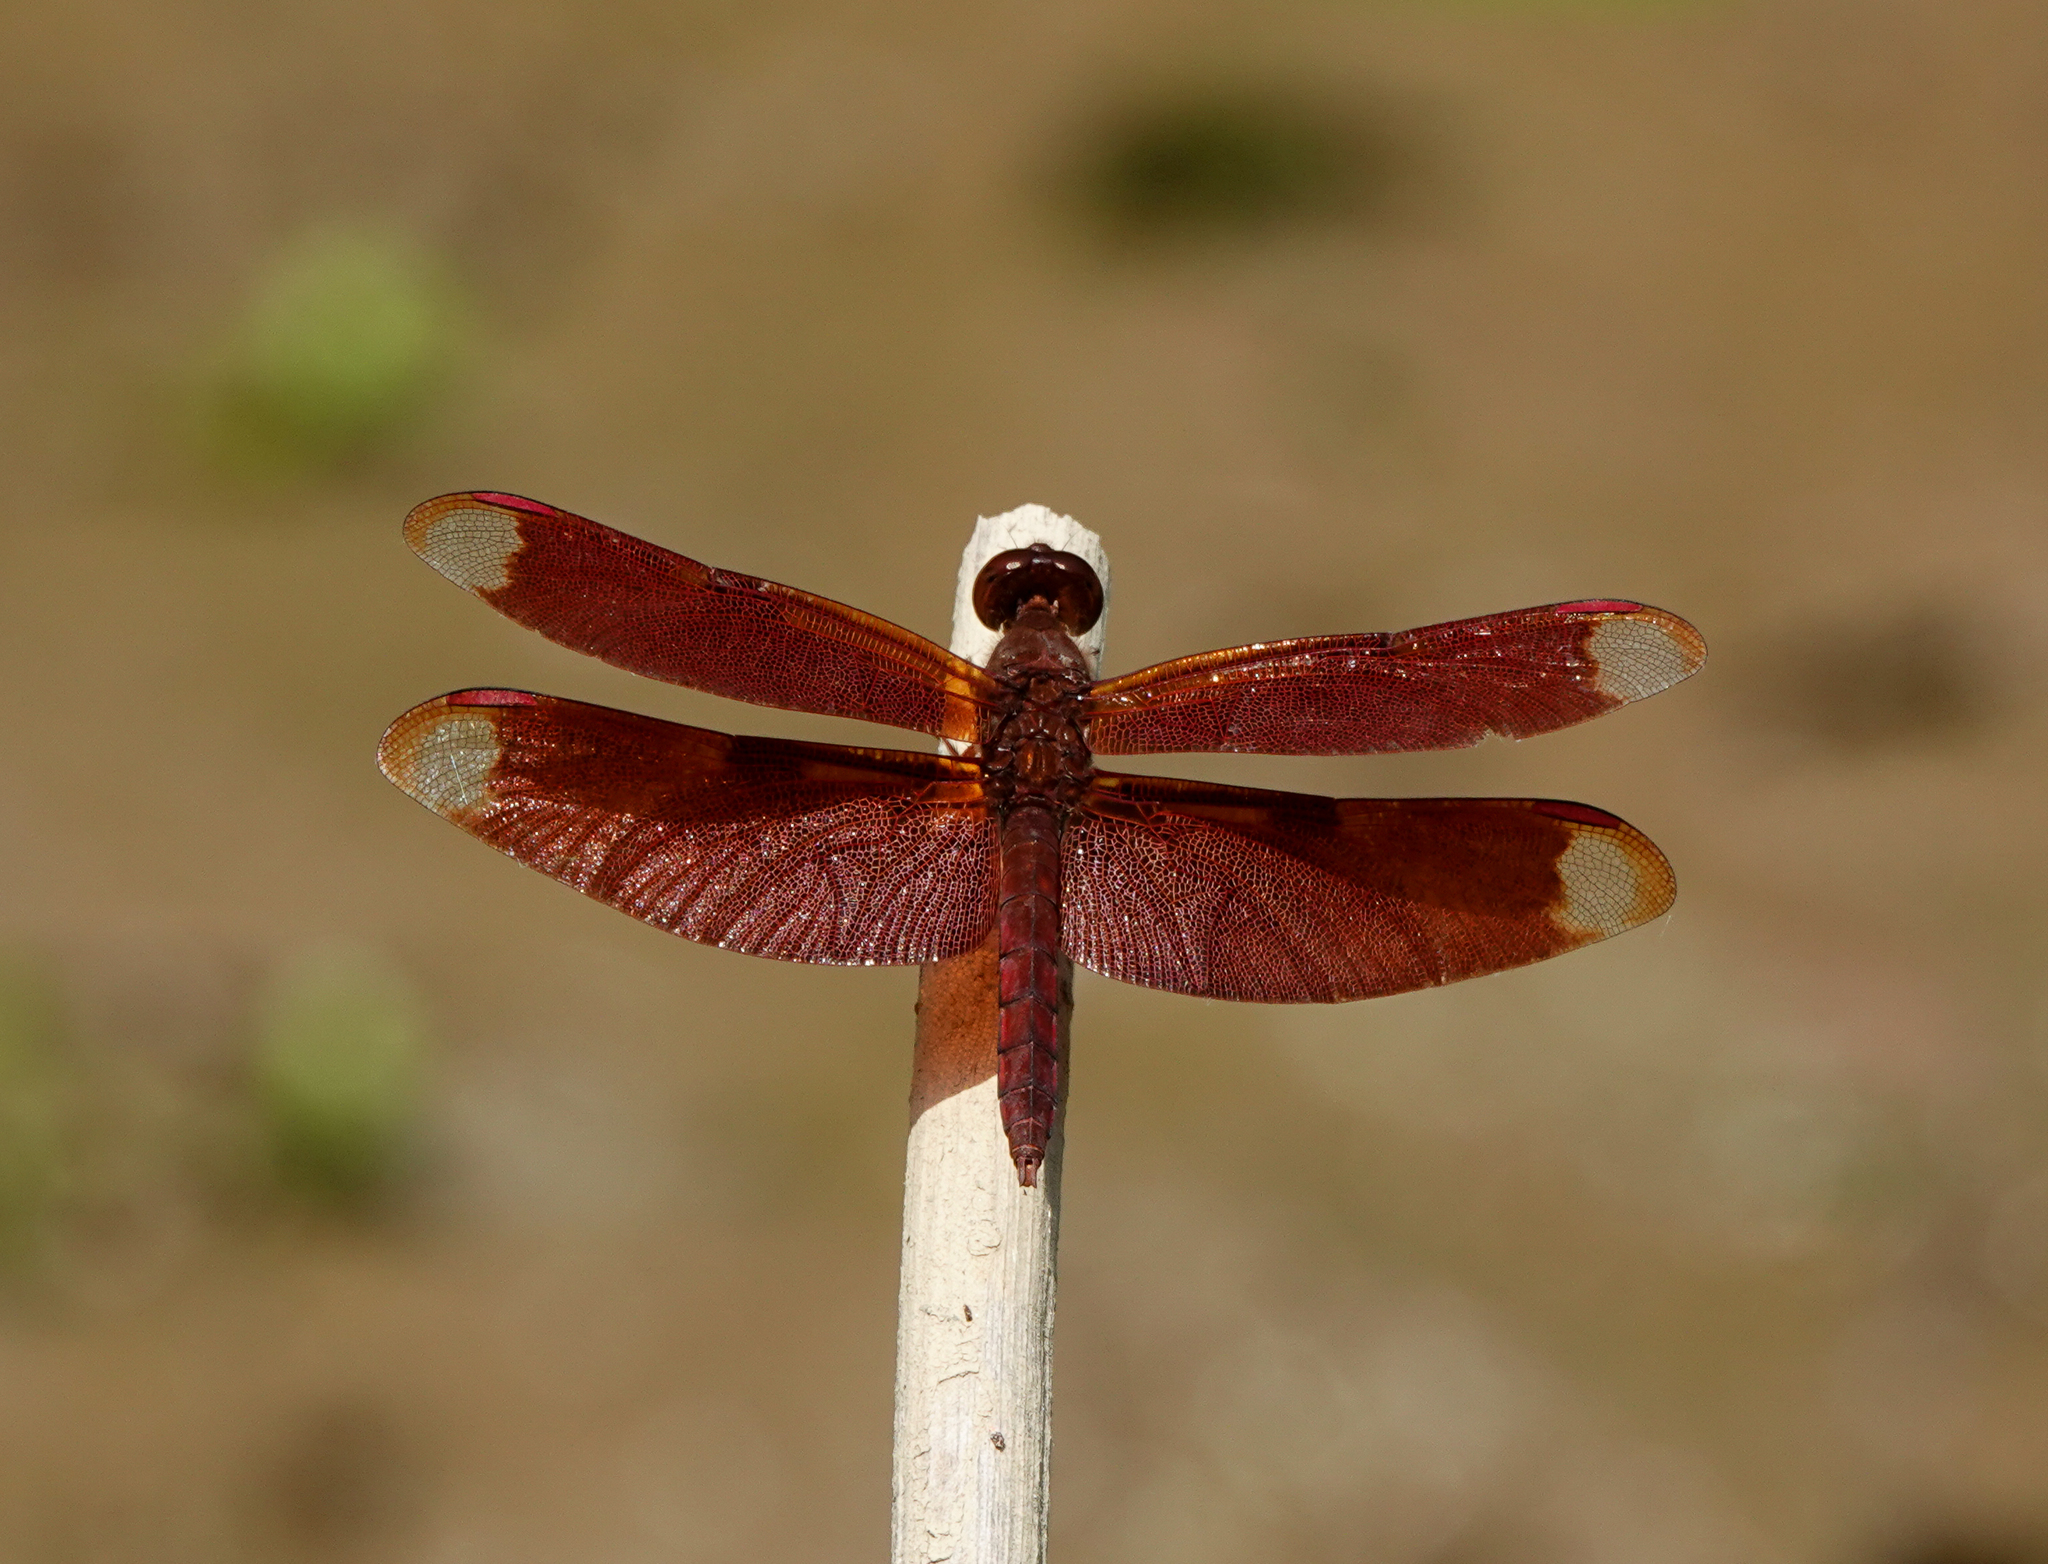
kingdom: Animalia
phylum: Arthropoda
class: Insecta
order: Odonata
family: Libellulidae
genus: Neurothemis
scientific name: Neurothemis fulvia
